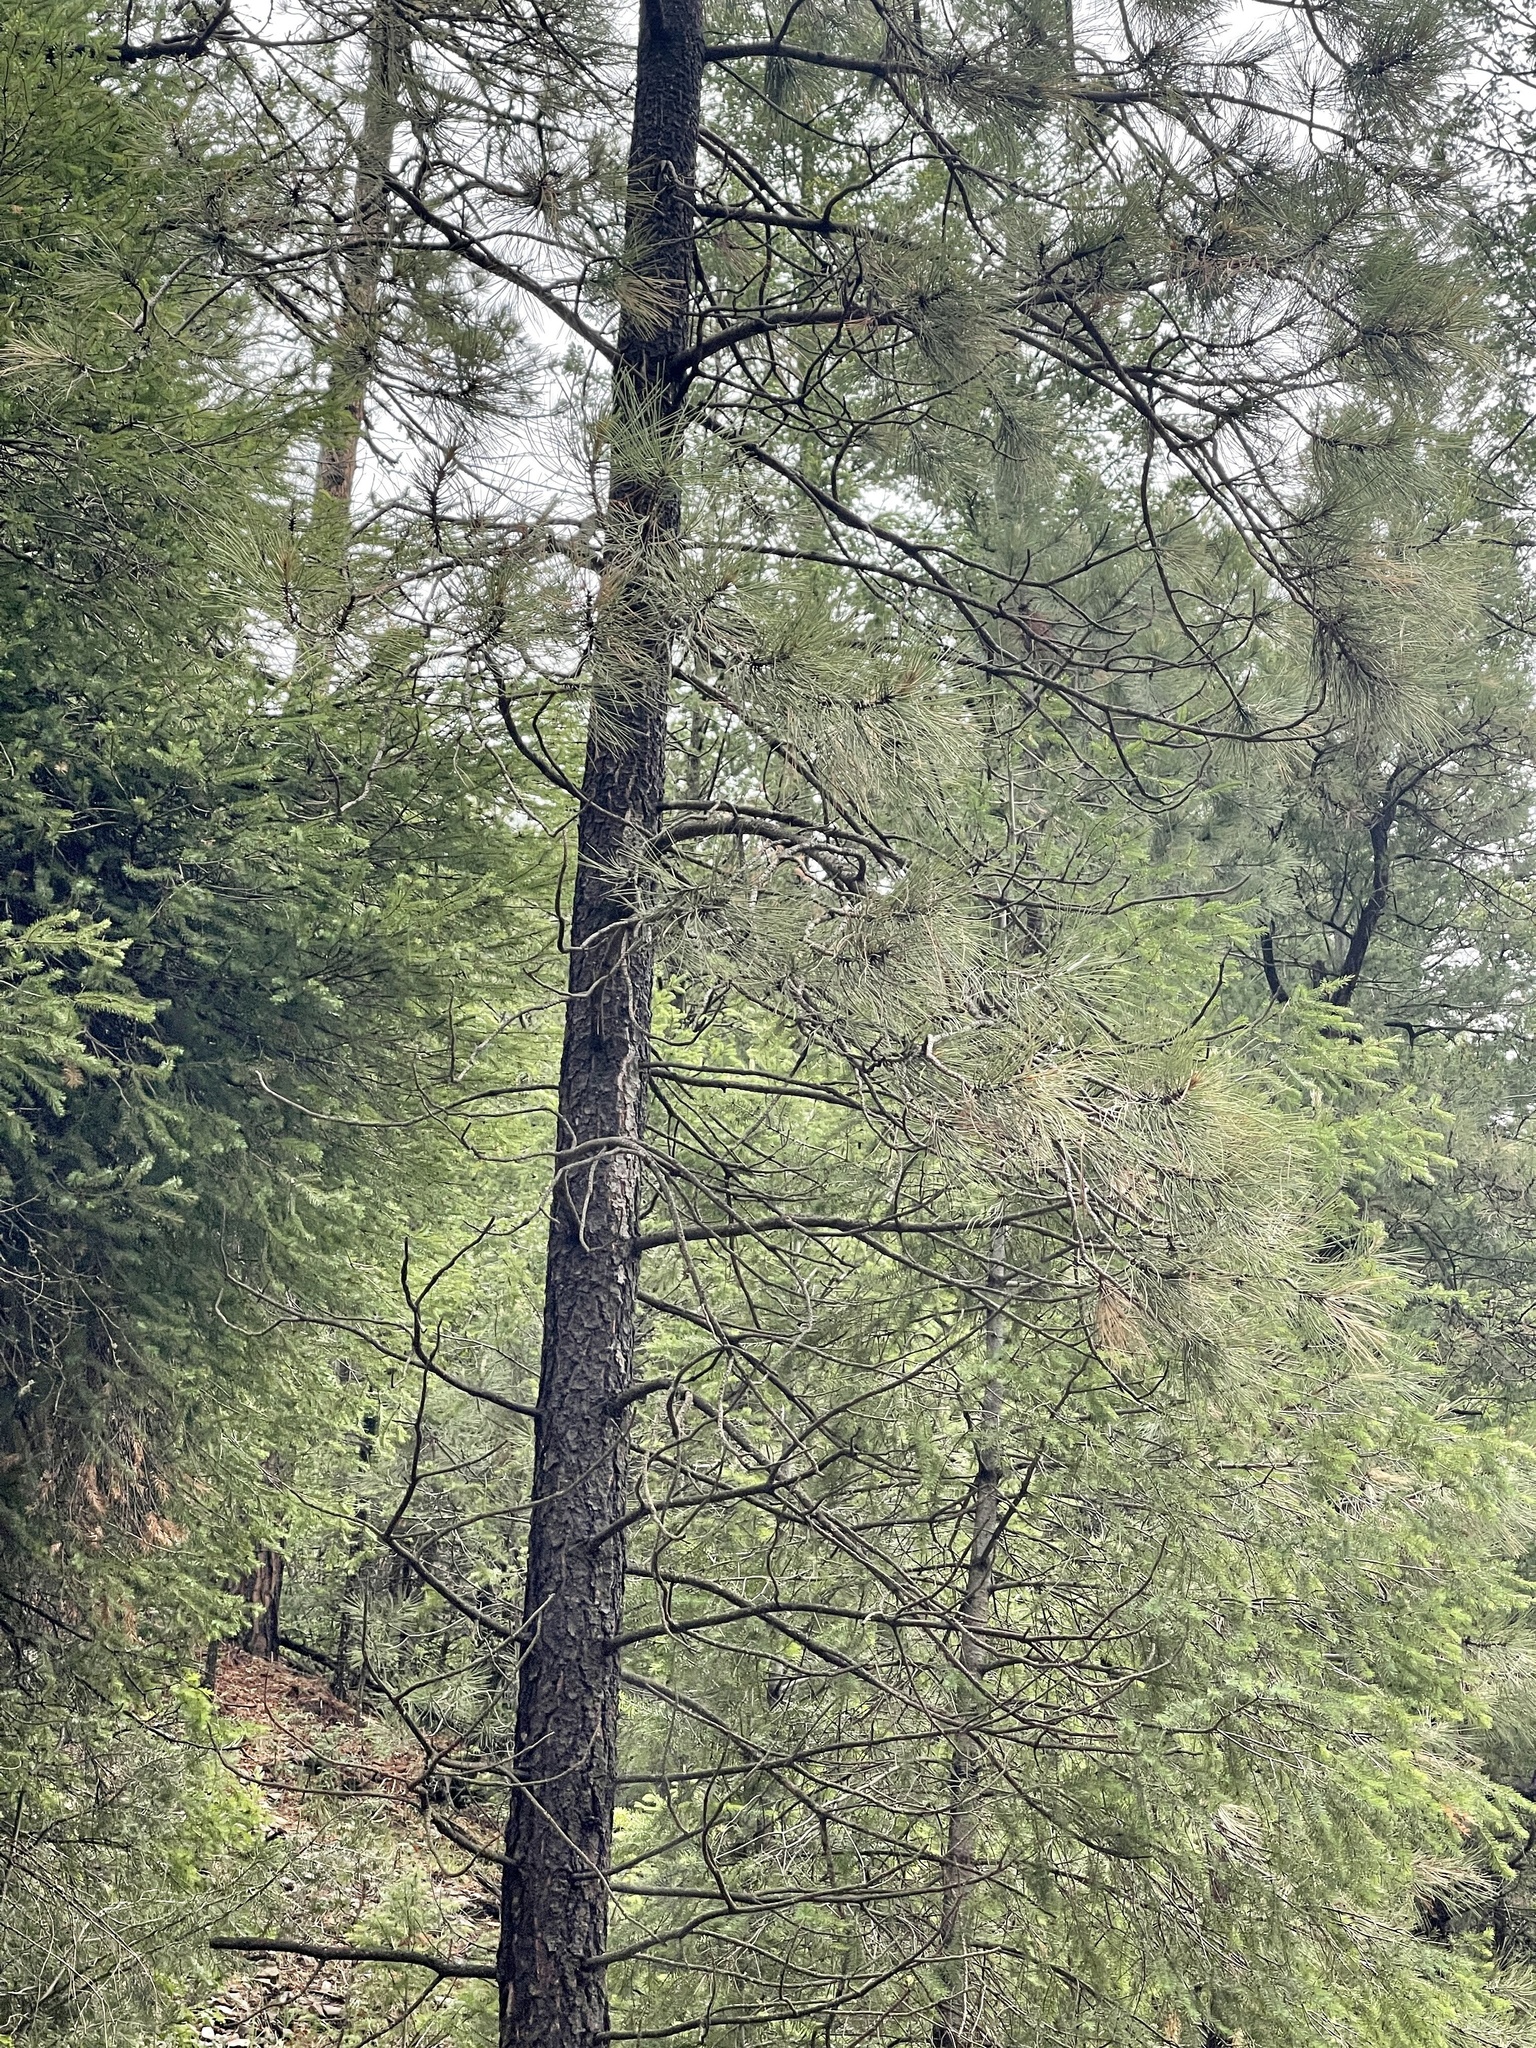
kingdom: Plantae
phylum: Tracheophyta
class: Pinopsida
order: Pinales
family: Pinaceae
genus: Pinus
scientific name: Pinus ponderosa
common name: Western yellow-pine
